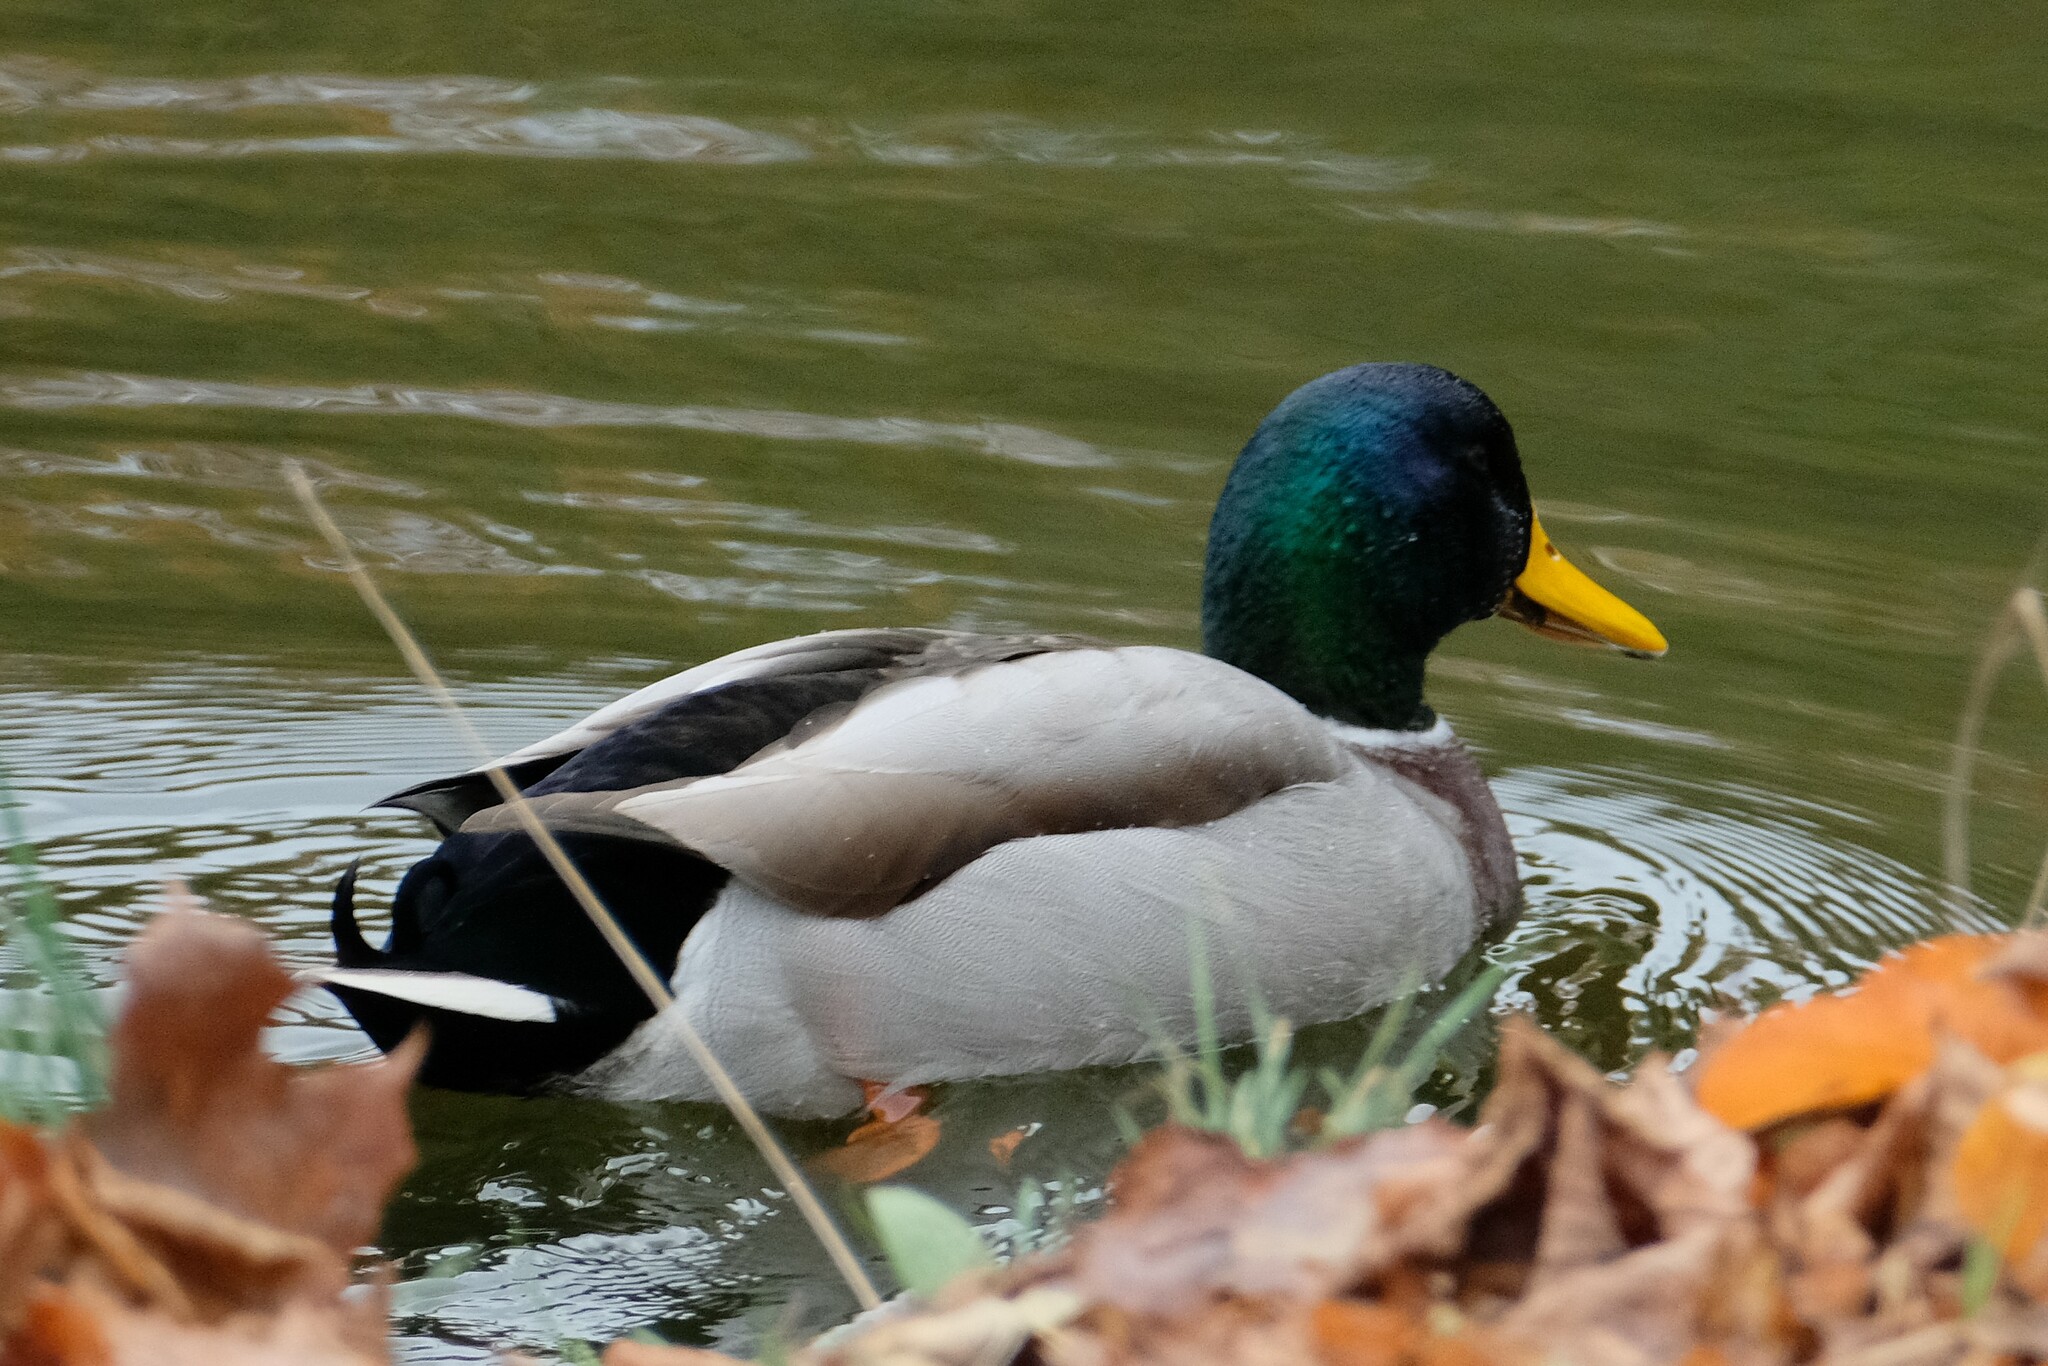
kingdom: Animalia
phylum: Chordata
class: Aves
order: Anseriformes
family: Anatidae
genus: Anas
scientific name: Anas platyrhynchos
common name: Mallard
